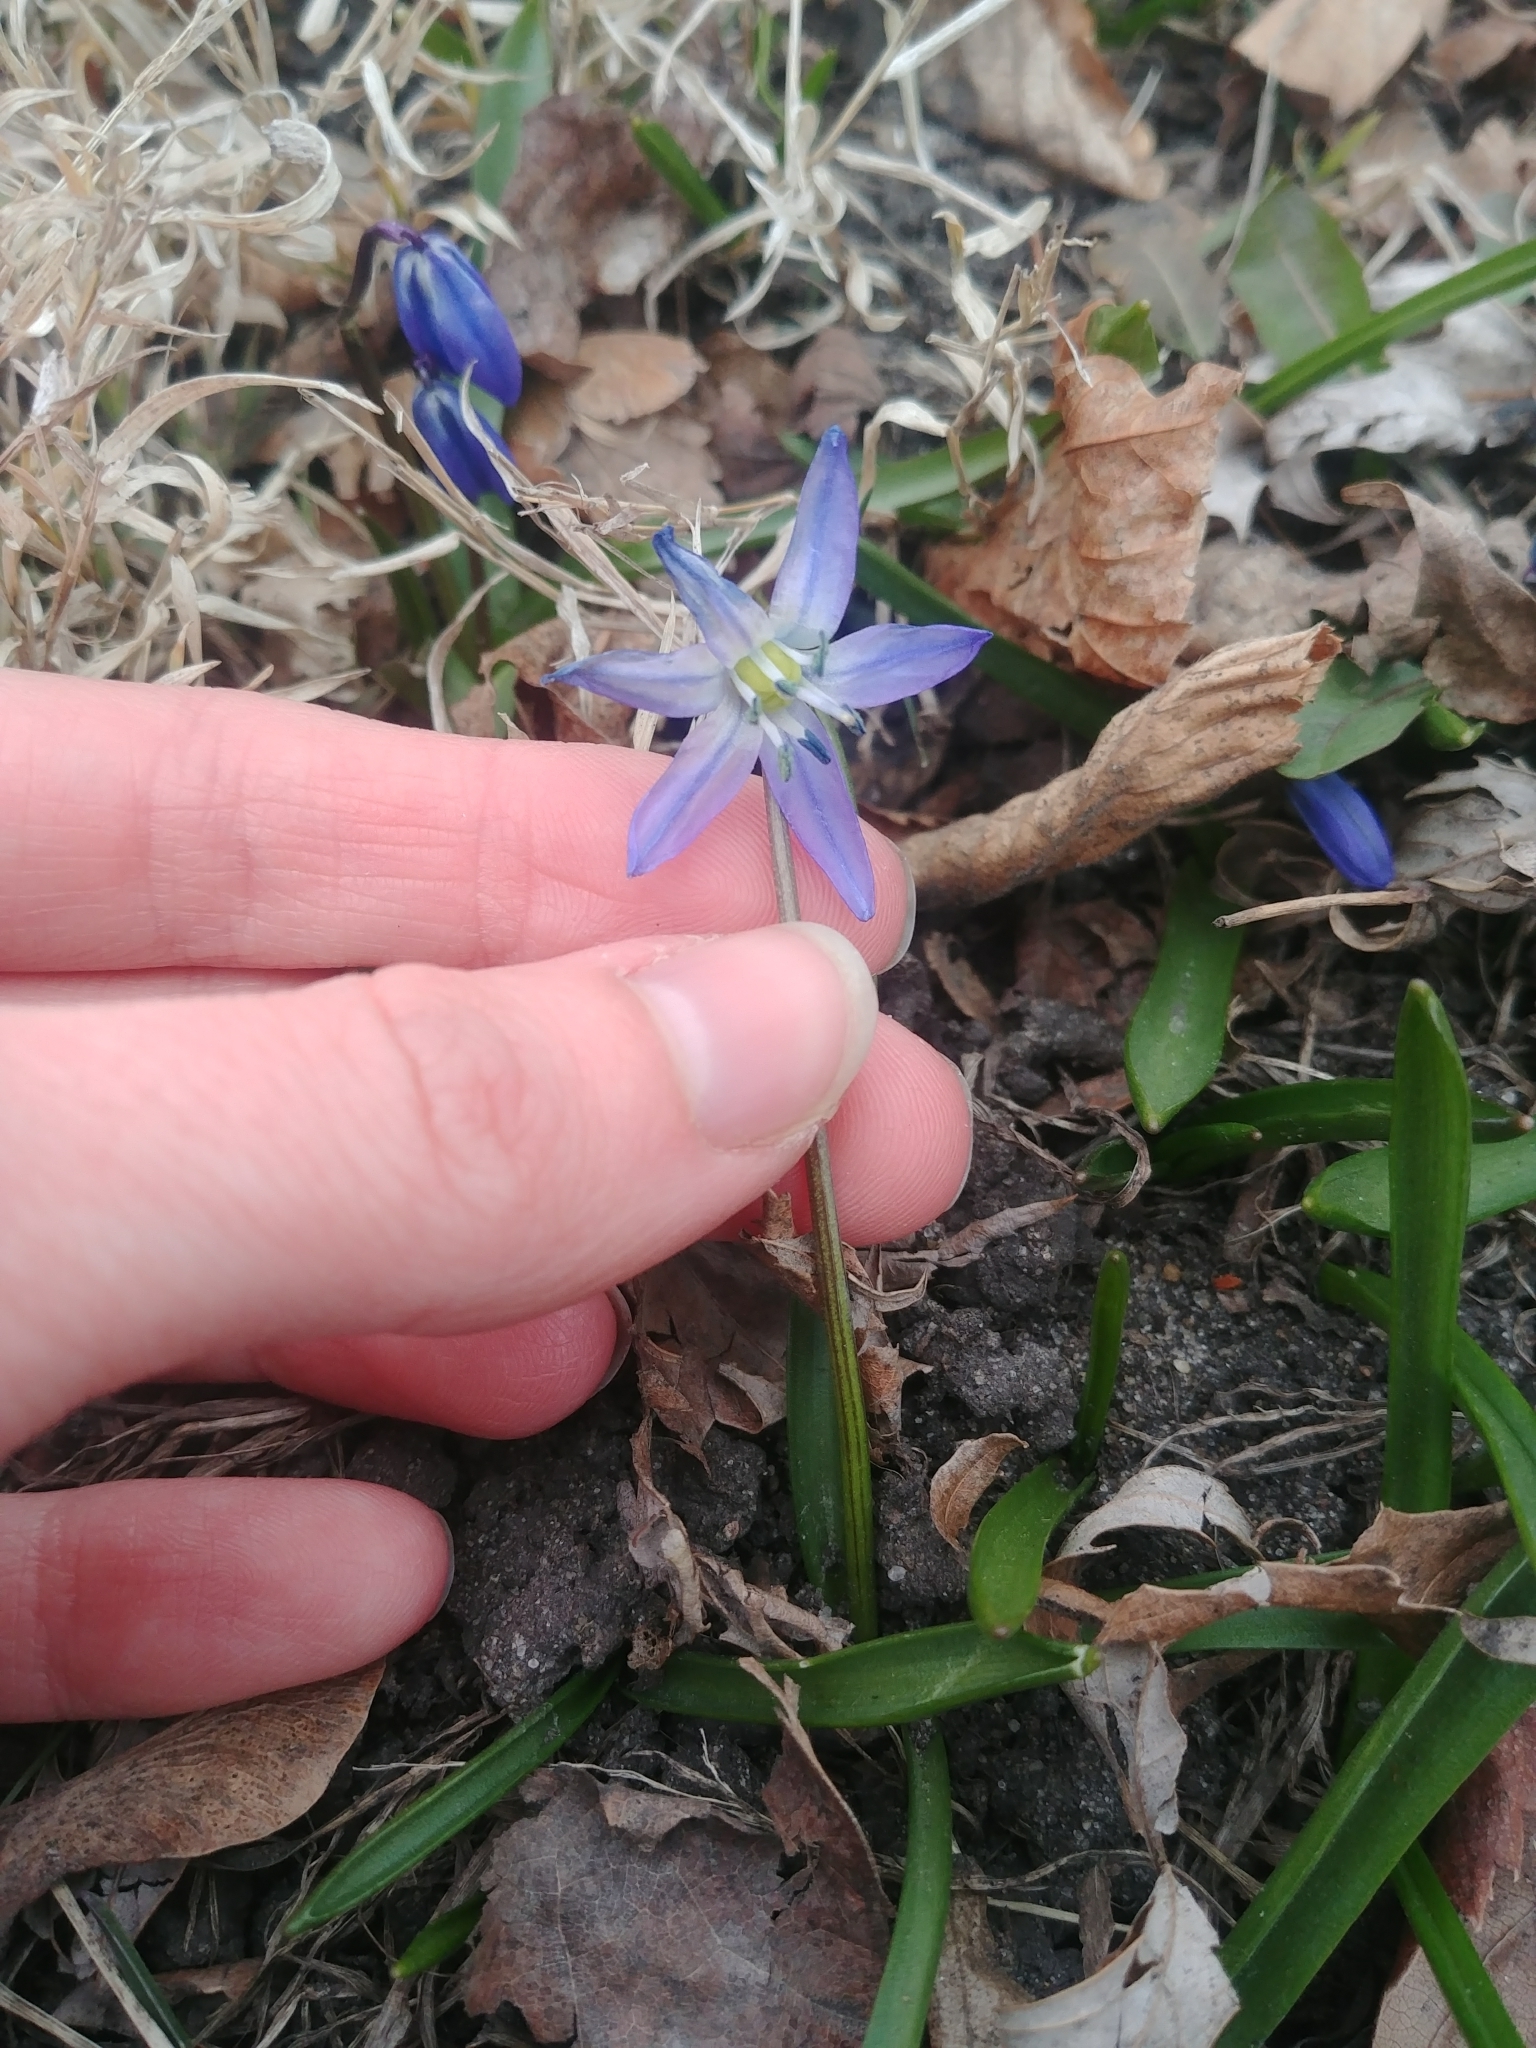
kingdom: Plantae
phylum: Tracheophyta
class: Liliopsida
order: Asparagales
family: Asparagaceae
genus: Scilla
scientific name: Scilla siberica
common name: Siberian squill
